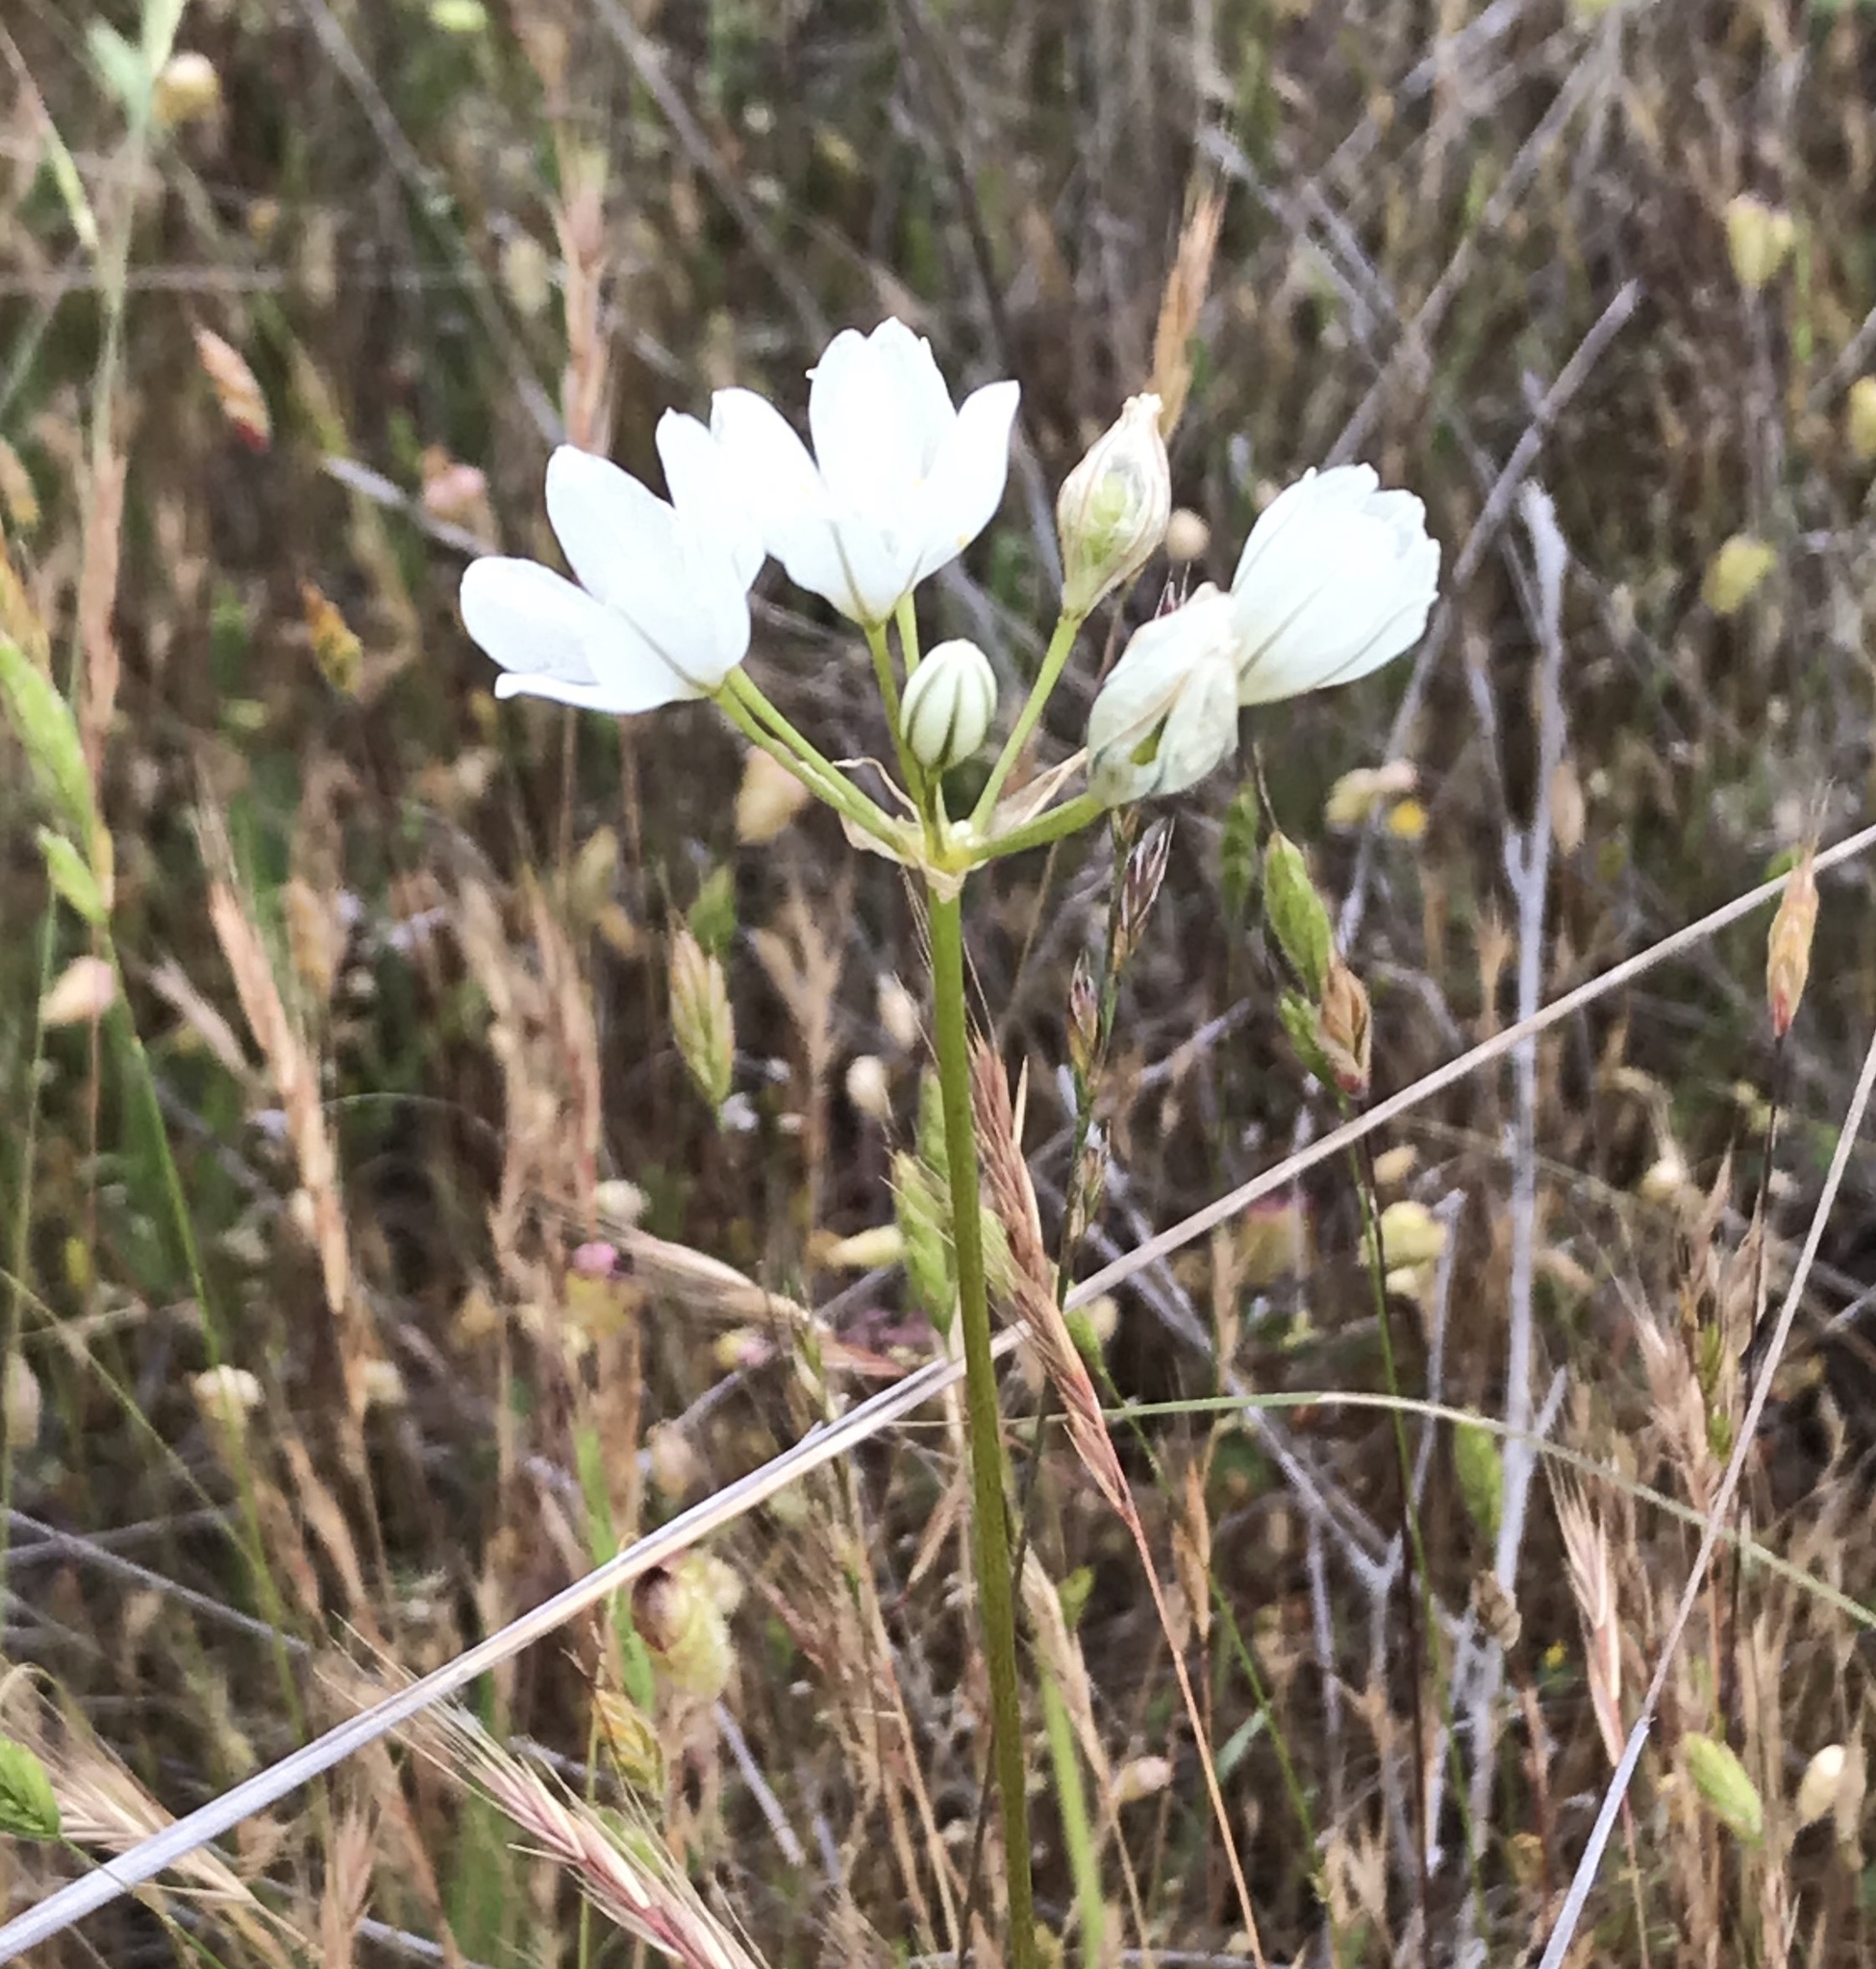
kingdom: Plantae
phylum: Tracheophyta
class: Liliopsida
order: Asparagales
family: Asparagaceae
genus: Triteleia
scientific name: Triteleia hyacinthina
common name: White brodiaea
